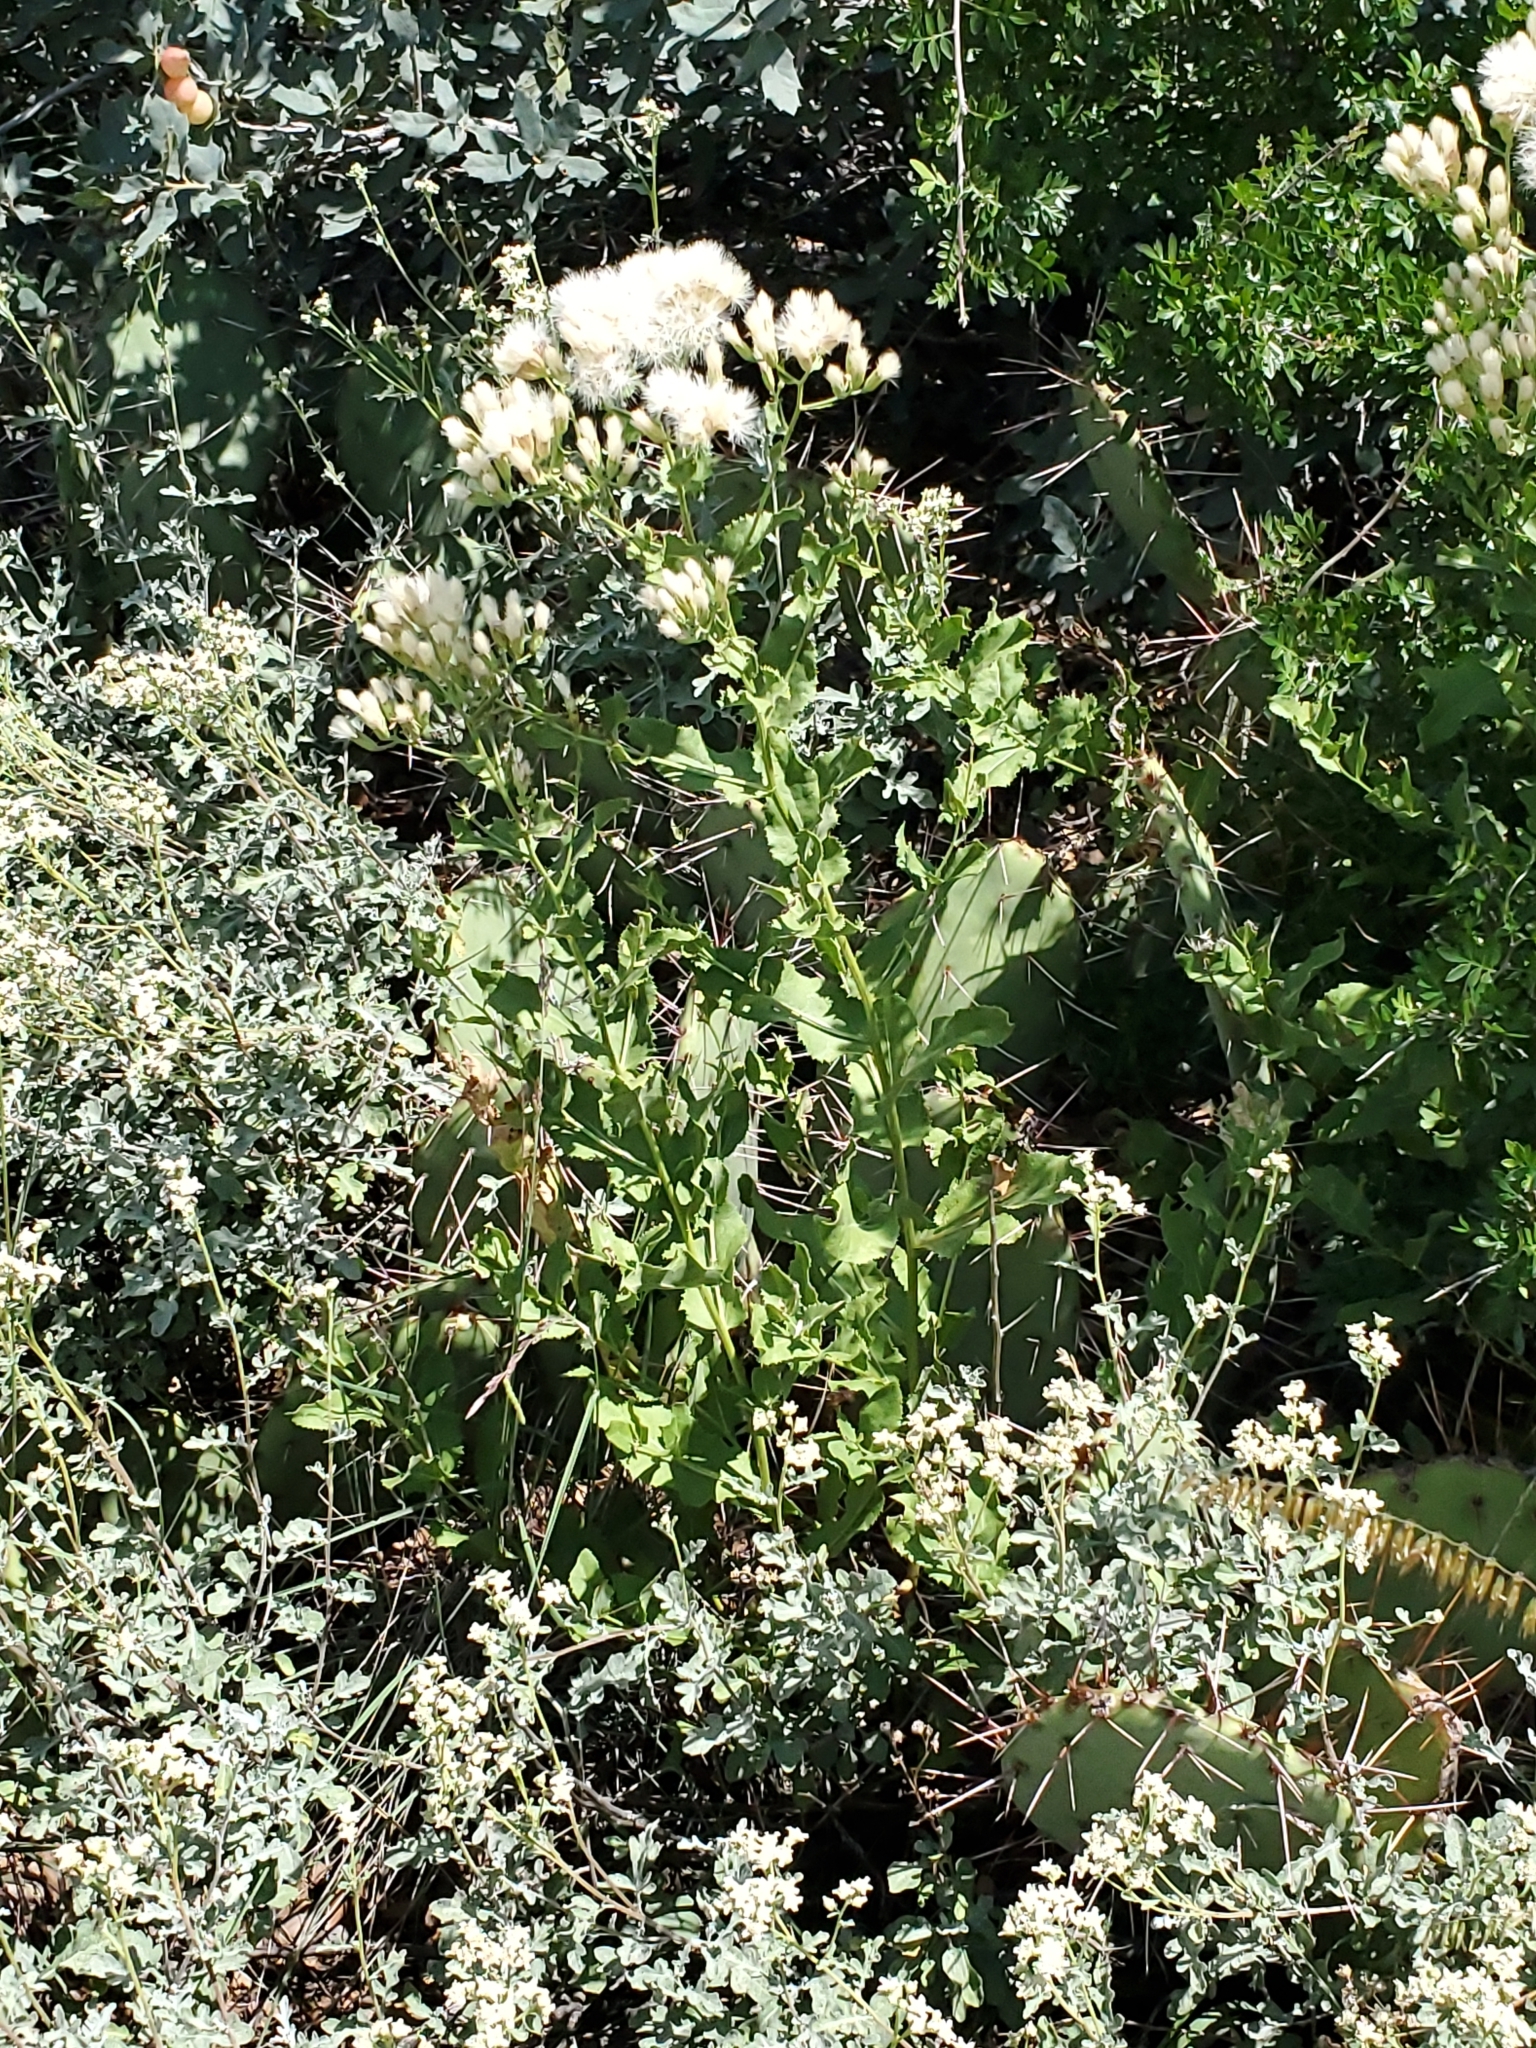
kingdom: Plantae
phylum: Tracheophyta
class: Magnoliopsida
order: Asterales
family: Asteraceae
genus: Acourtia
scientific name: Acourtia wrightii
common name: Brownfoot
